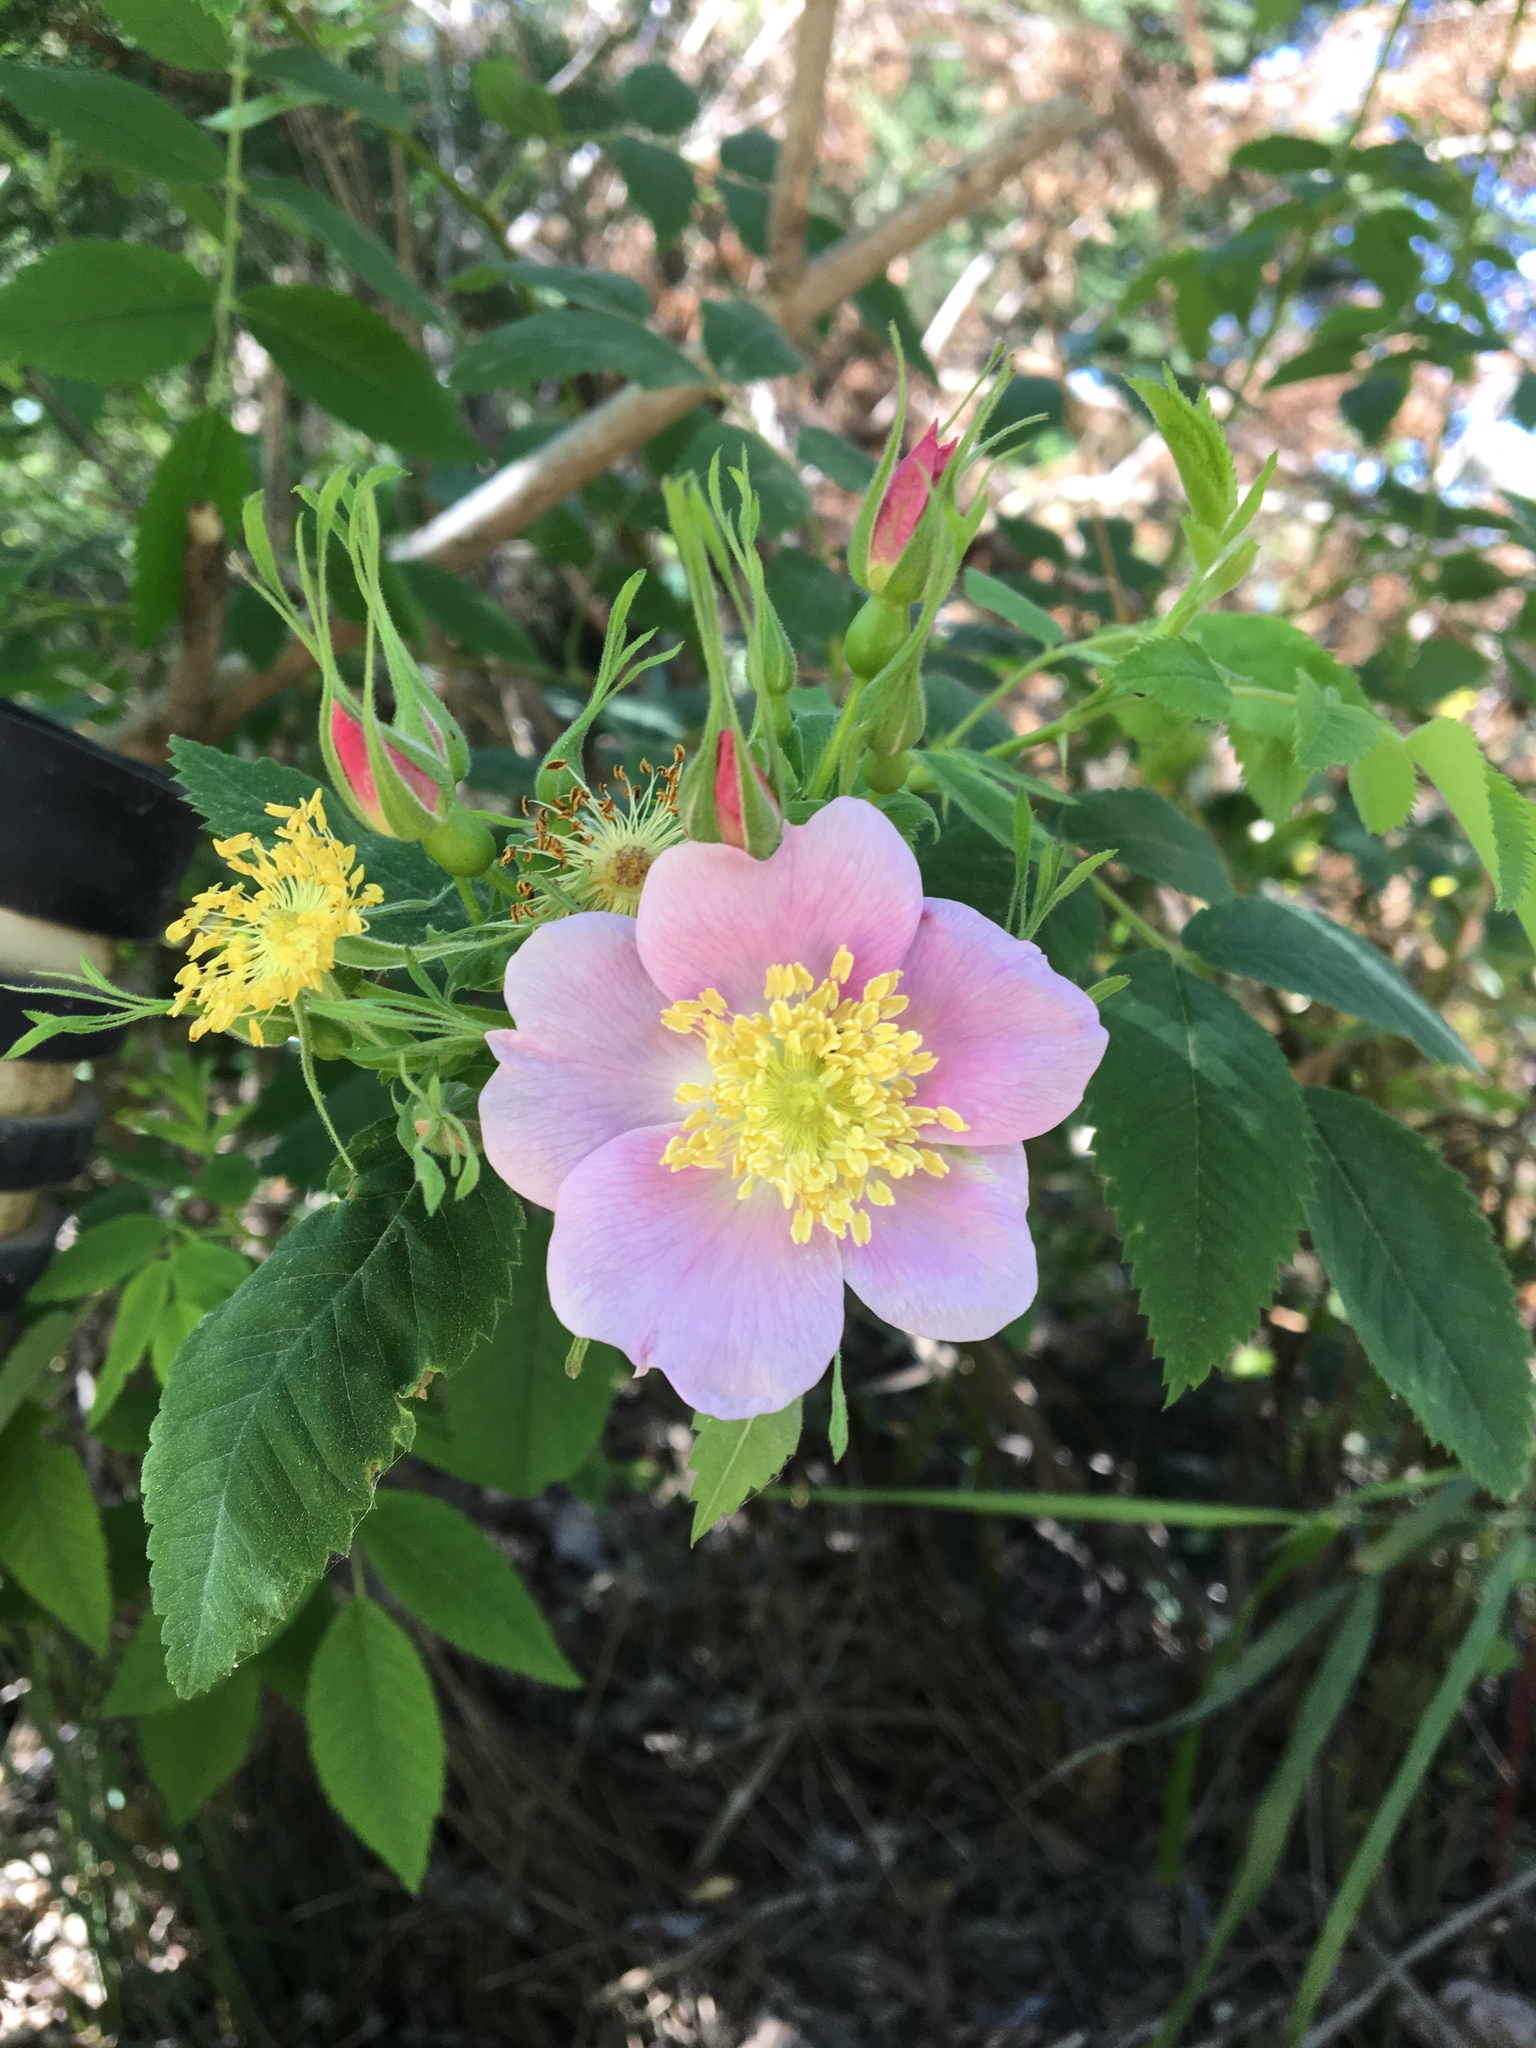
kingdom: Plantae
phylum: Tracheophyta
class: Magnoliopsida
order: Rosales
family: Rosaceae
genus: Rosa
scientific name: Rosa californica
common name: California rose
